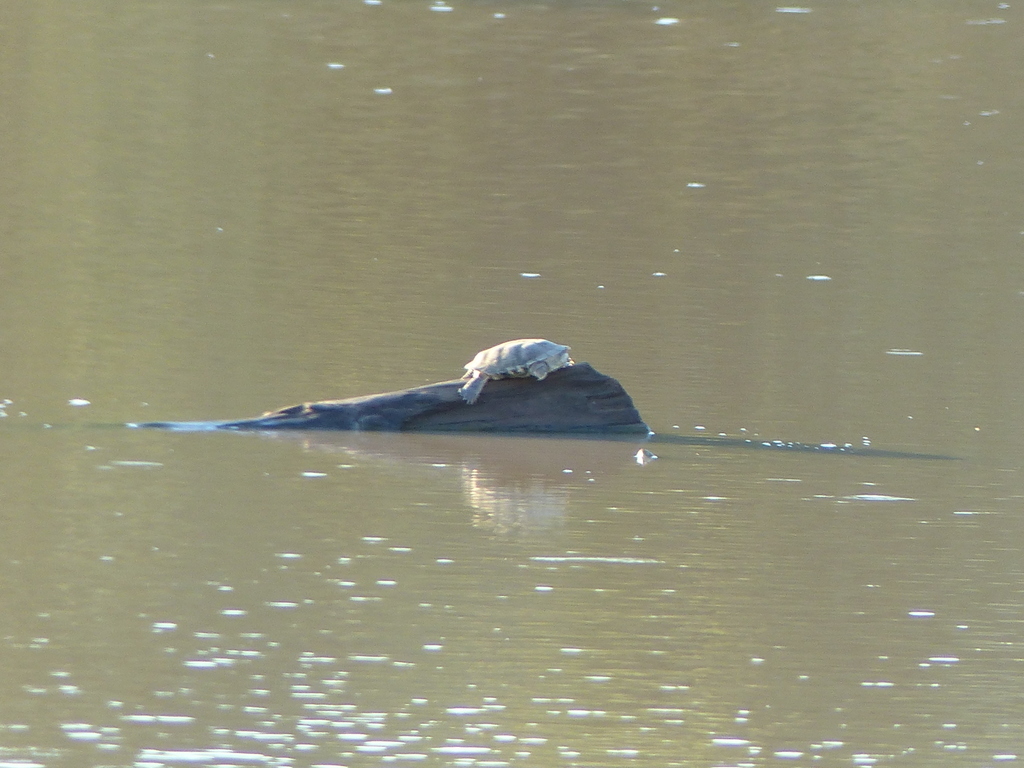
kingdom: Animalia
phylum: Chordata
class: Testudines
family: Pelomedusidae
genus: Pelomedusa
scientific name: Pelomedusa galeata
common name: South african helmeted terrapin
